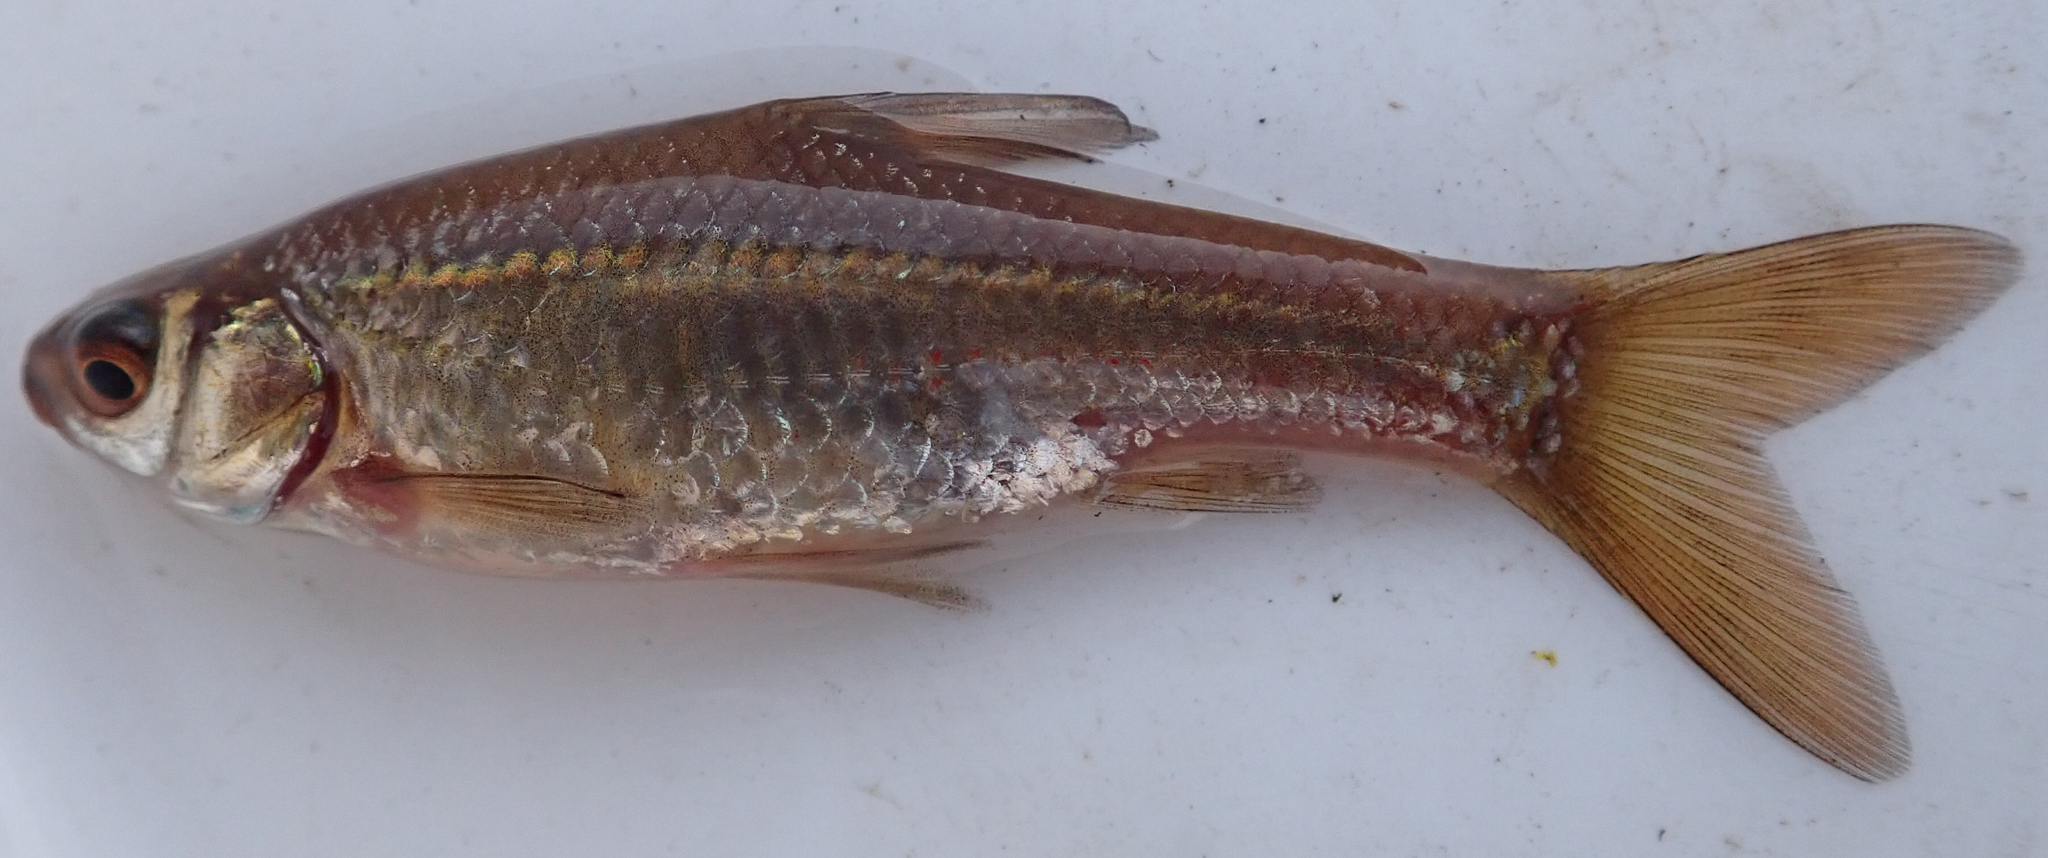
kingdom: Animalia
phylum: Chordata
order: Cypriniformes
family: Cyprinidae
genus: Enteromius
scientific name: Enteromius paludinosus
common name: Straightfin barb
